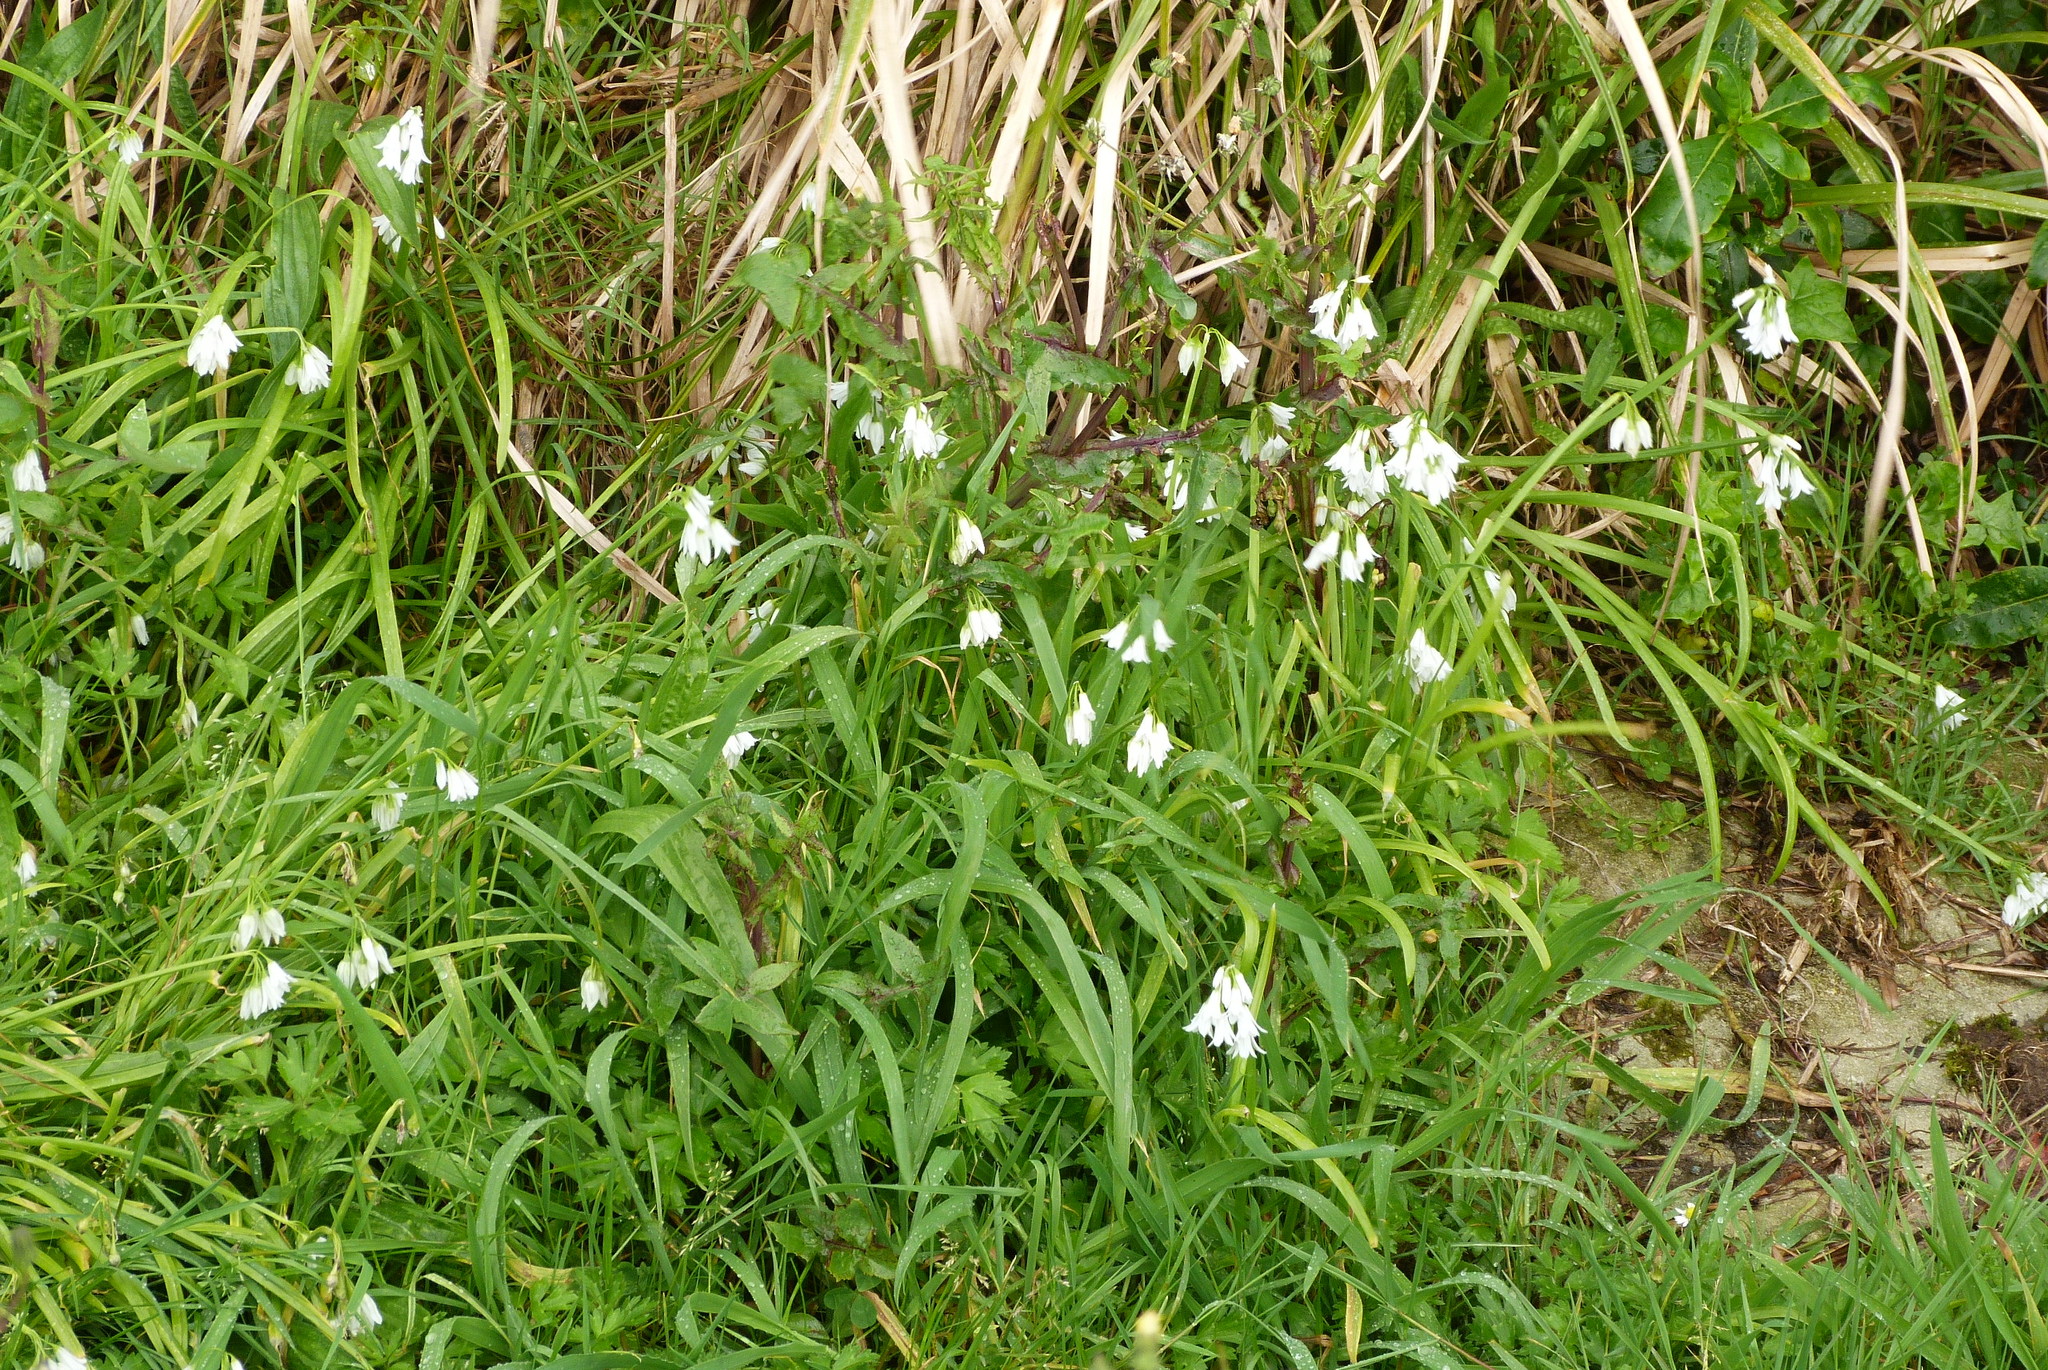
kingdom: Plantae
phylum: Tracheophyta
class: Liliopsida
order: Asparagales
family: Amaryllidaceae
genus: Allium
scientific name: Allium triquetrum
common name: Three-cornered garlic
